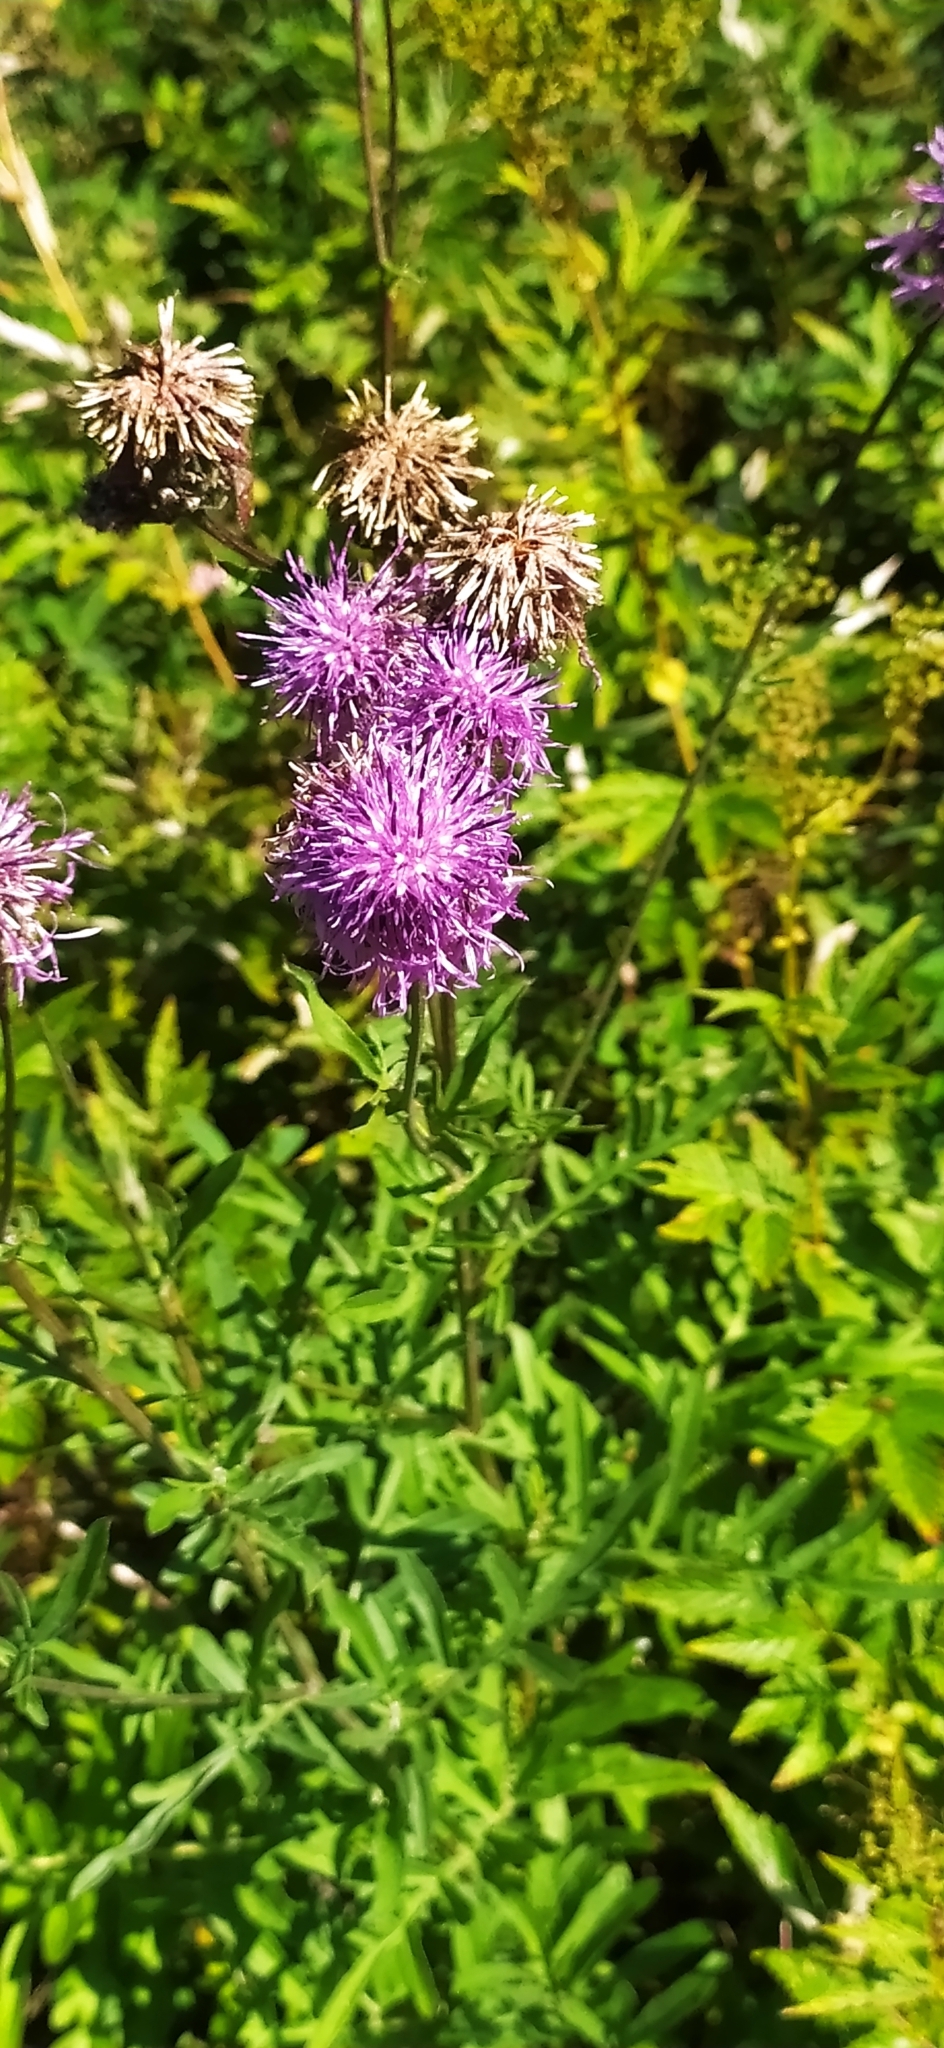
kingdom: Plantae
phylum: Tracheophyta
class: Magnoliopsida
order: Asterales
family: Asteraceae
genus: Centaurea
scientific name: Centaurea scabiosa
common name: Greater knapweed
